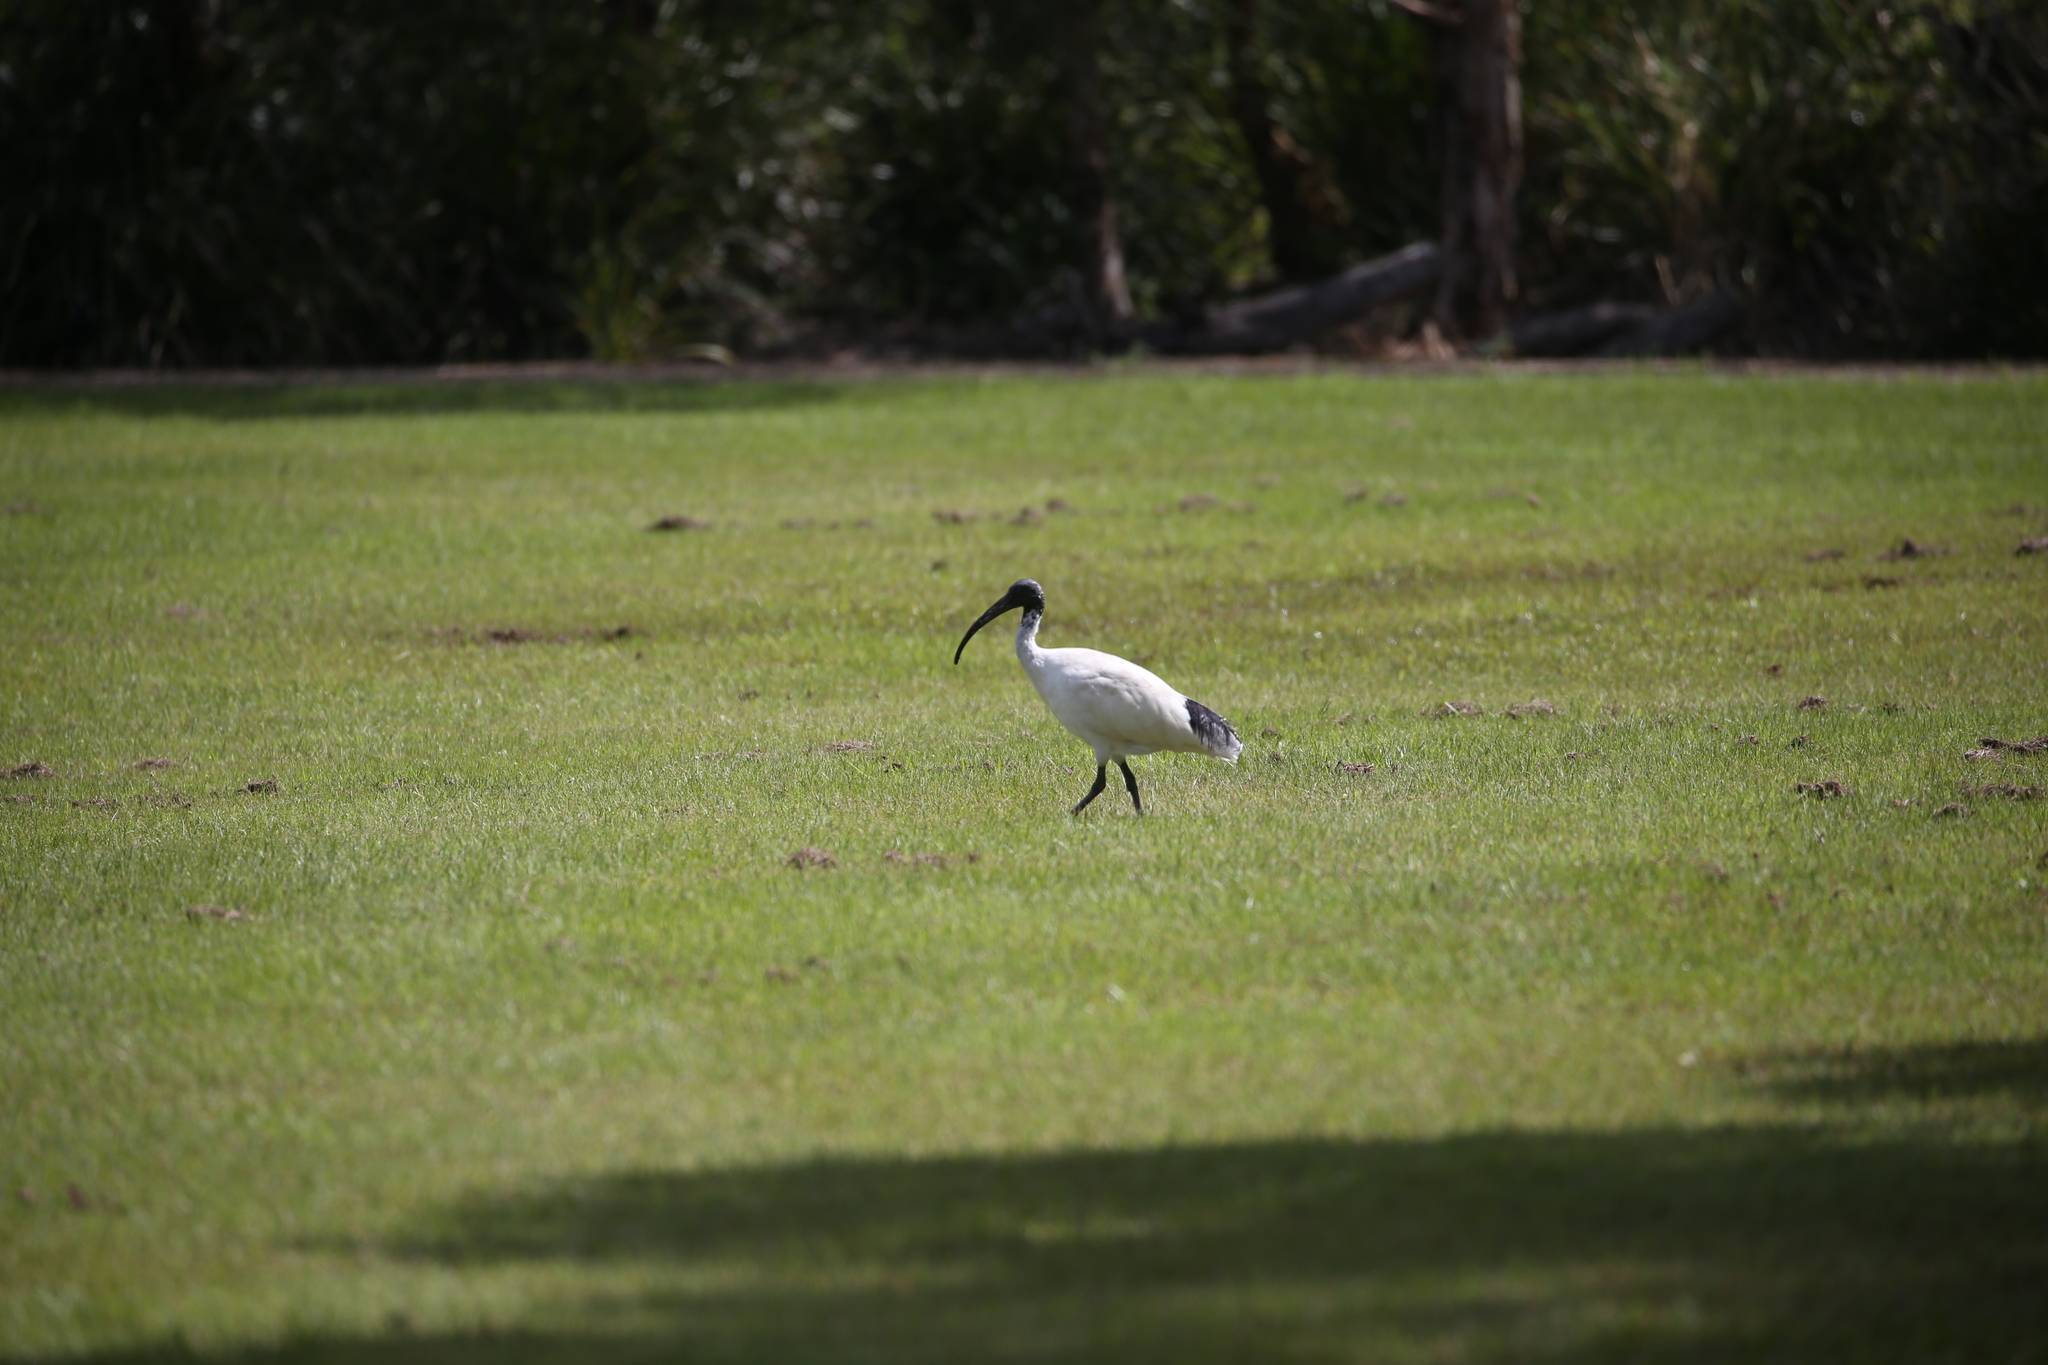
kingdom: Animalia
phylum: Chordata
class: Aves
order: Pelecaniformes
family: Threskiornithidae
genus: Threskiornis
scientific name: Threskiornis molucca
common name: Australian white ibis
